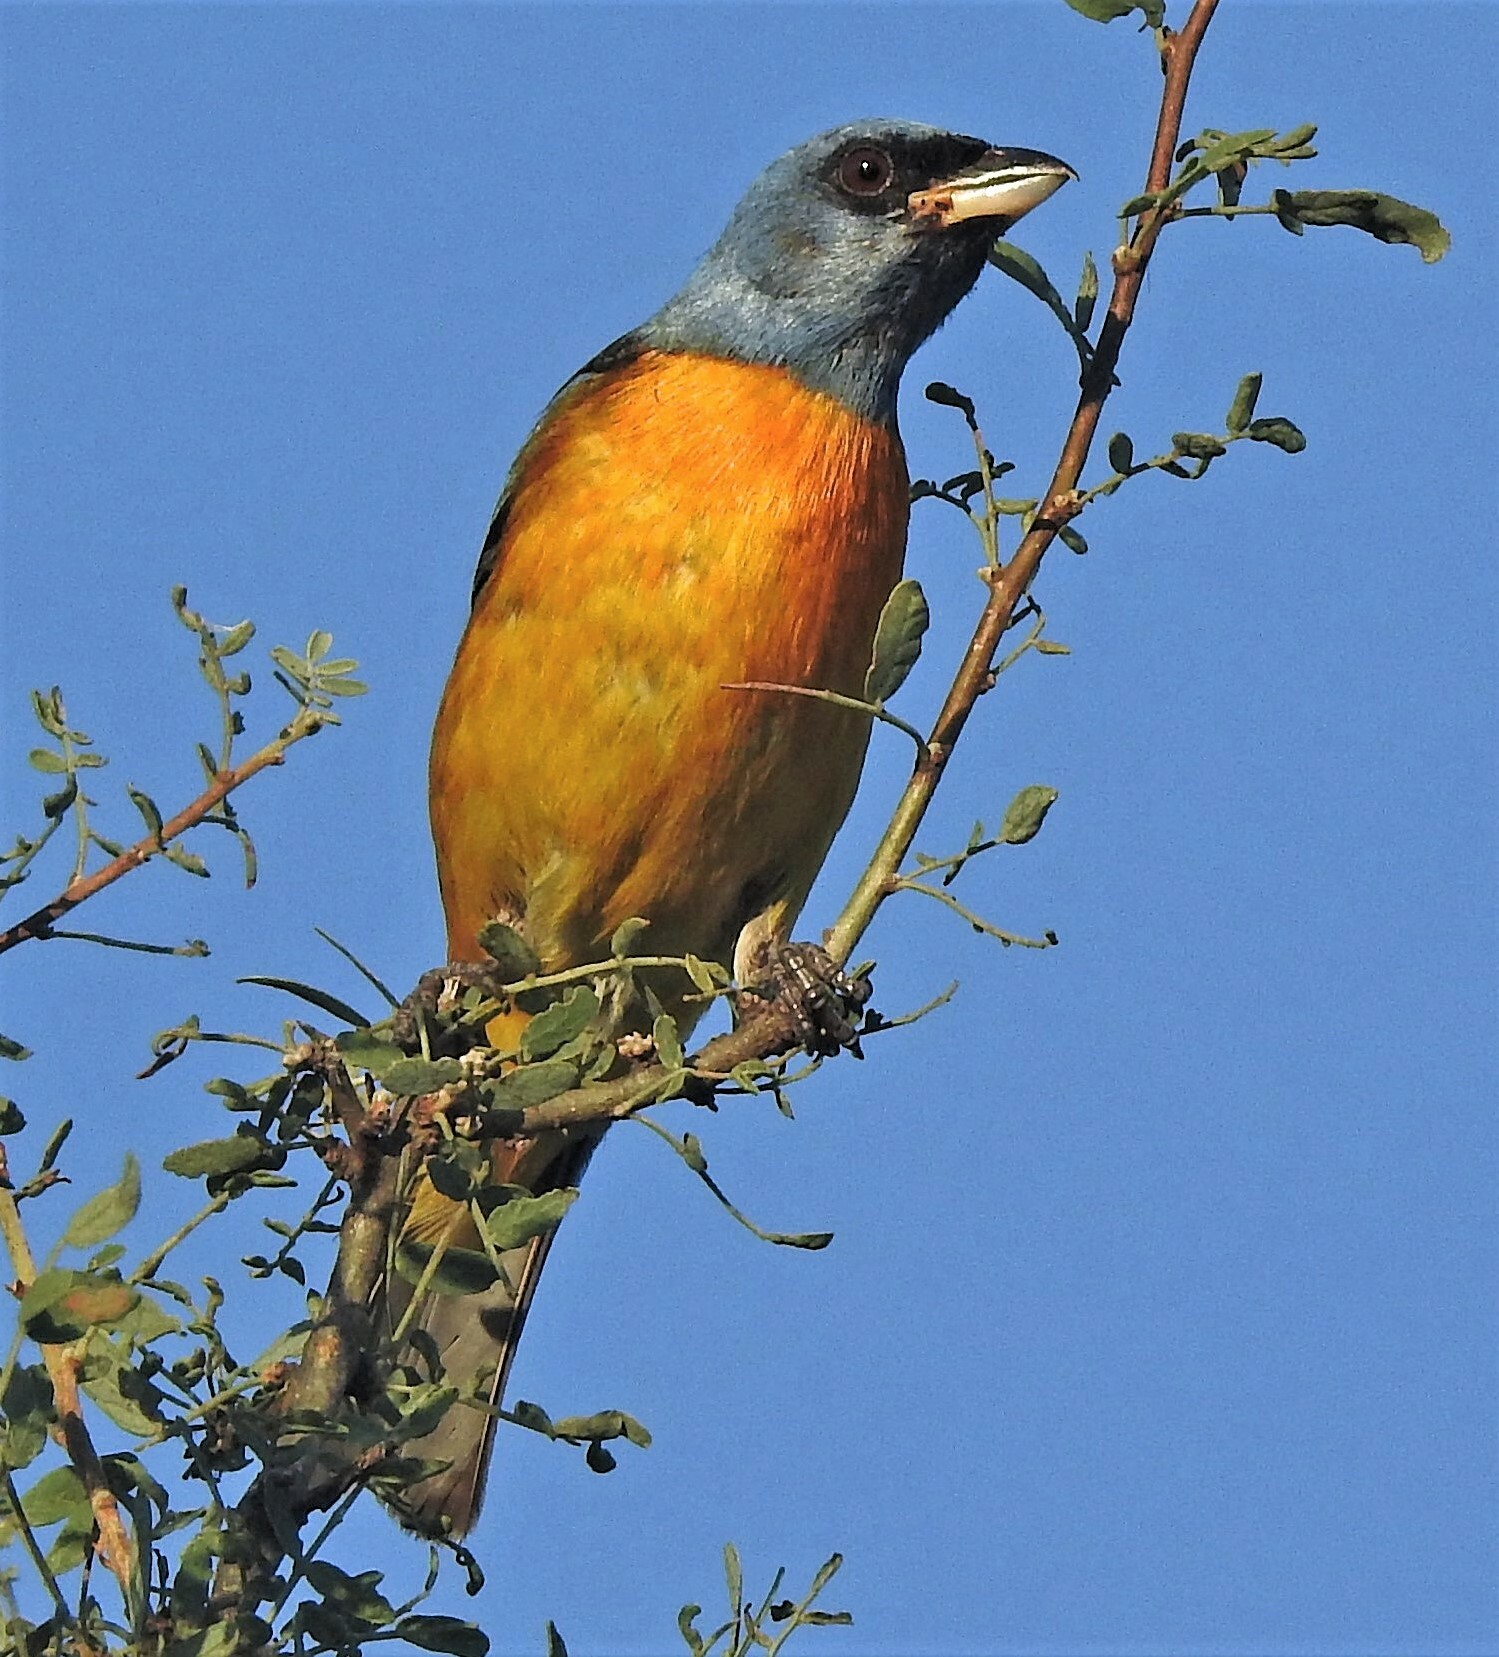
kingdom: Animalia
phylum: Chordata
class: Aves
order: Passeriformes
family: Thraupidae
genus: Rauenia
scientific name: Rauenia bonariensis
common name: Blue-and-yellow tanager
